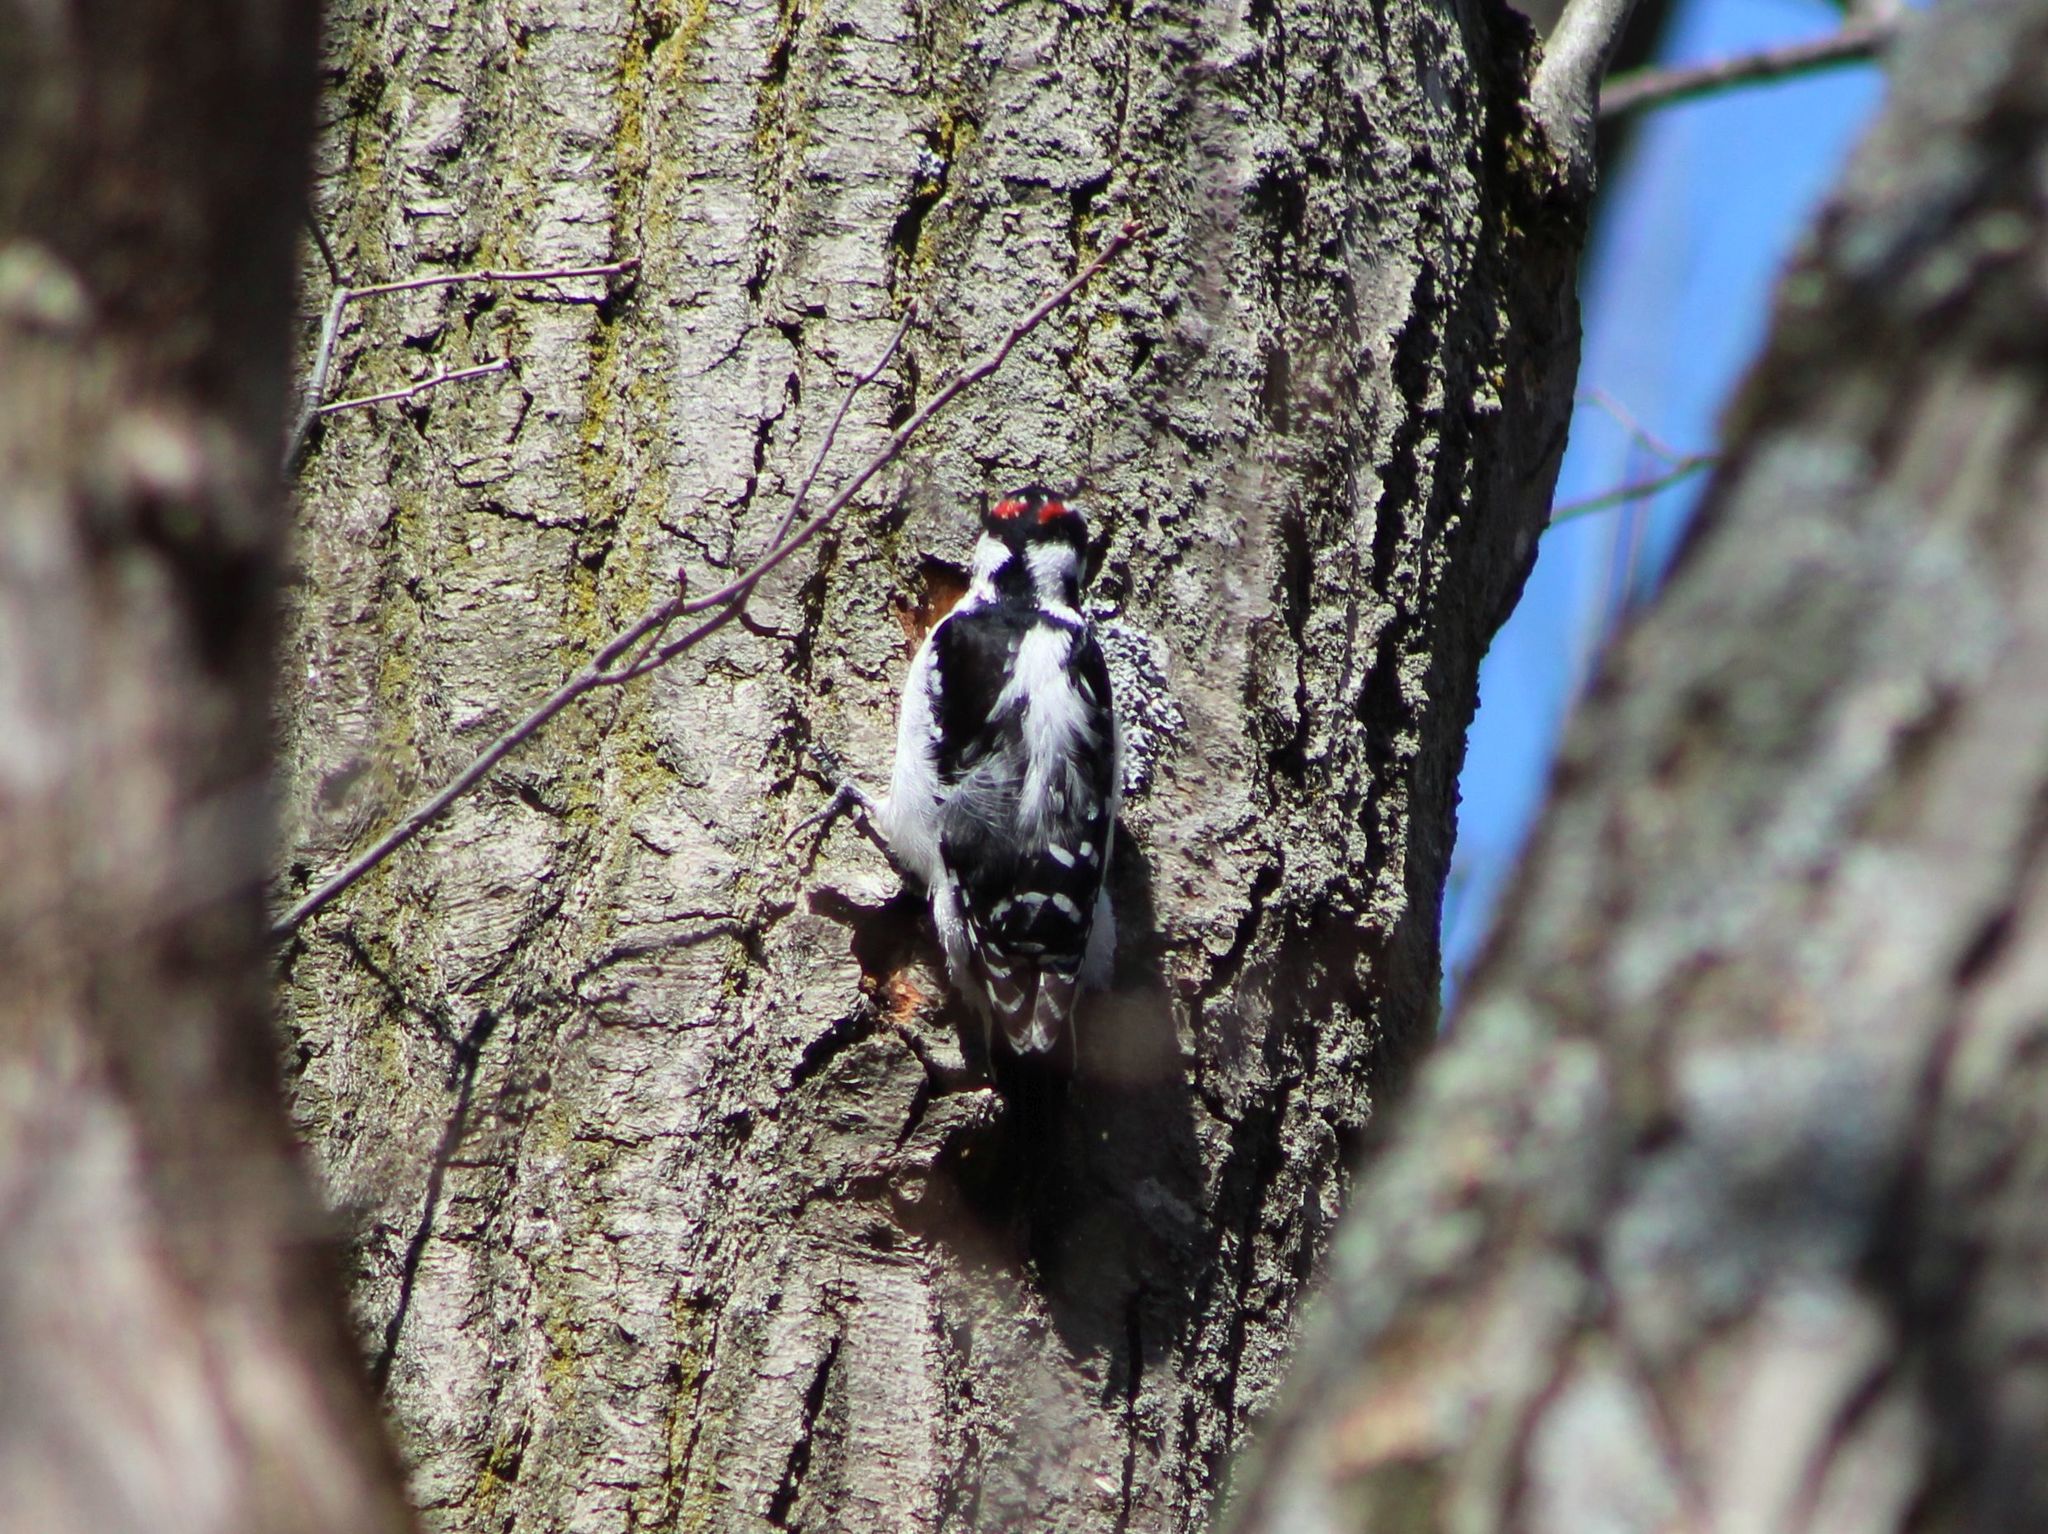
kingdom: Animalia
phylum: Chordata
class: Aves
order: Piciformes
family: Picidae
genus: Leuconotopicus
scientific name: Leuconotopicus villosus
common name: Hairy woodpecker
